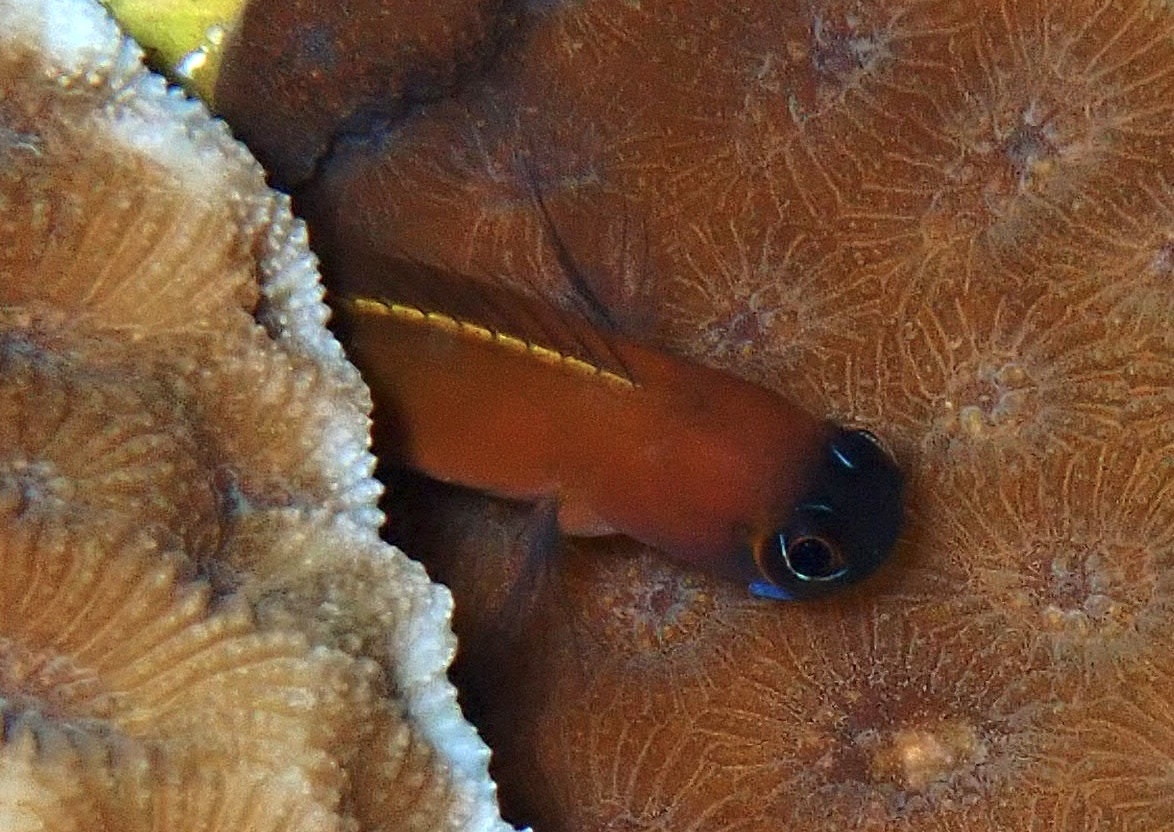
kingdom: Animalia
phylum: Chordata
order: Perciformes
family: Blenniidae
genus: Ecsenius
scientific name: Ecsenius aroni
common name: Aron's blenny
